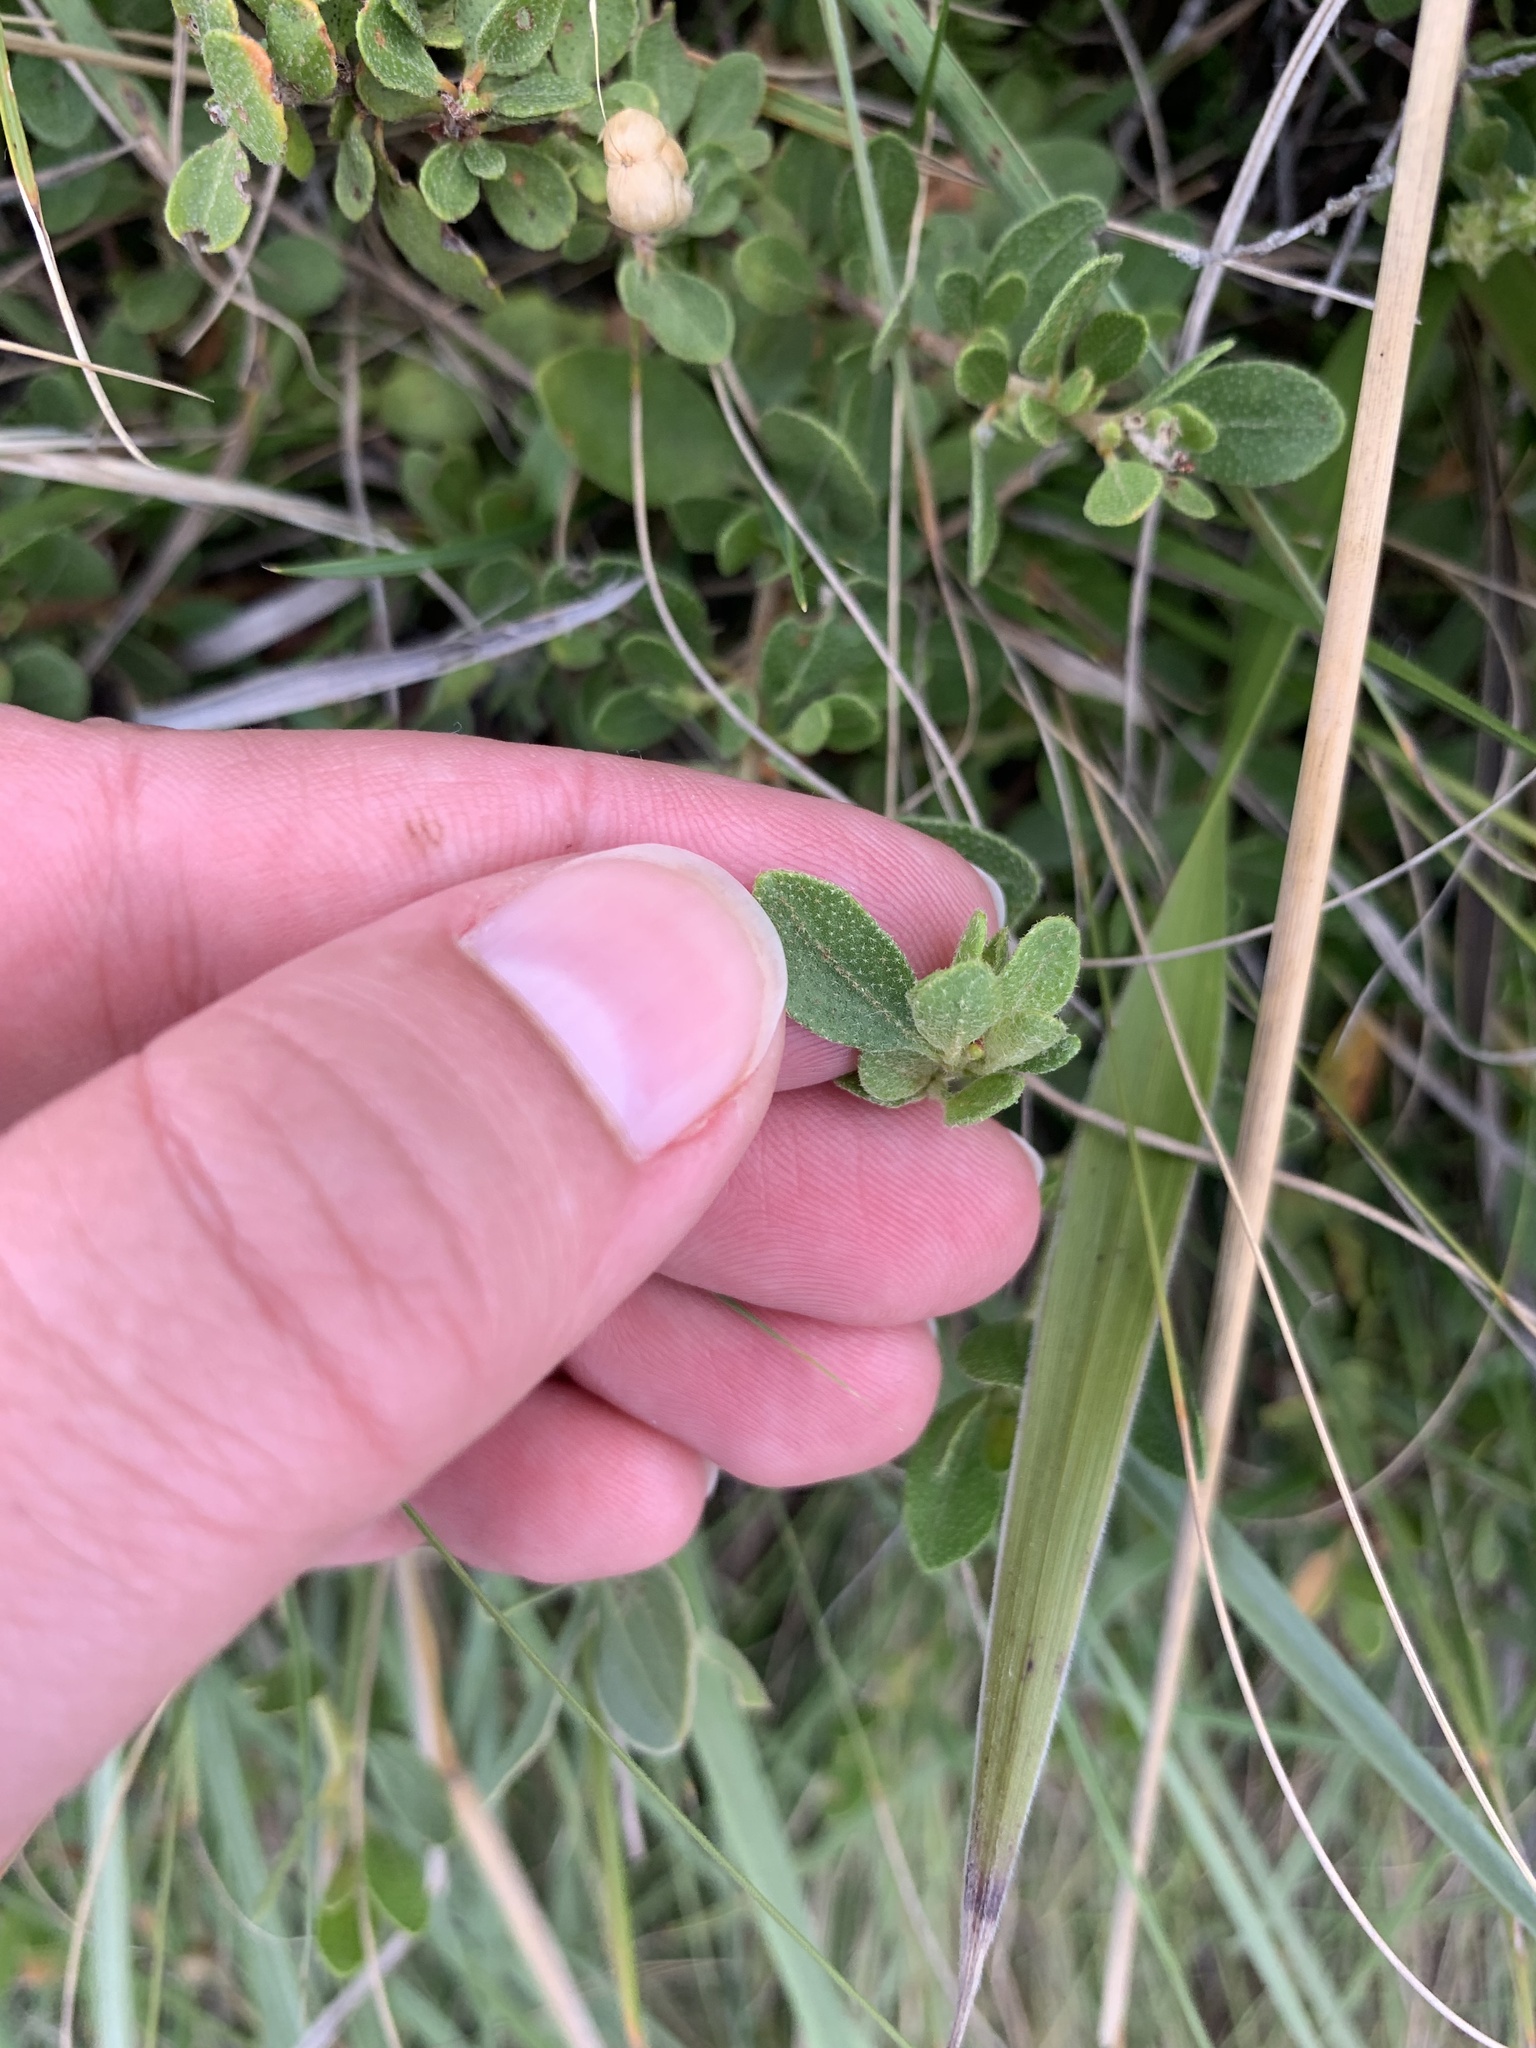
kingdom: Plantae
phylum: Tracheophyta
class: Magnoliopsida
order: Malpighiales
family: Euphorbiaceae
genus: Croton
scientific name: Croton nitrariifolius
